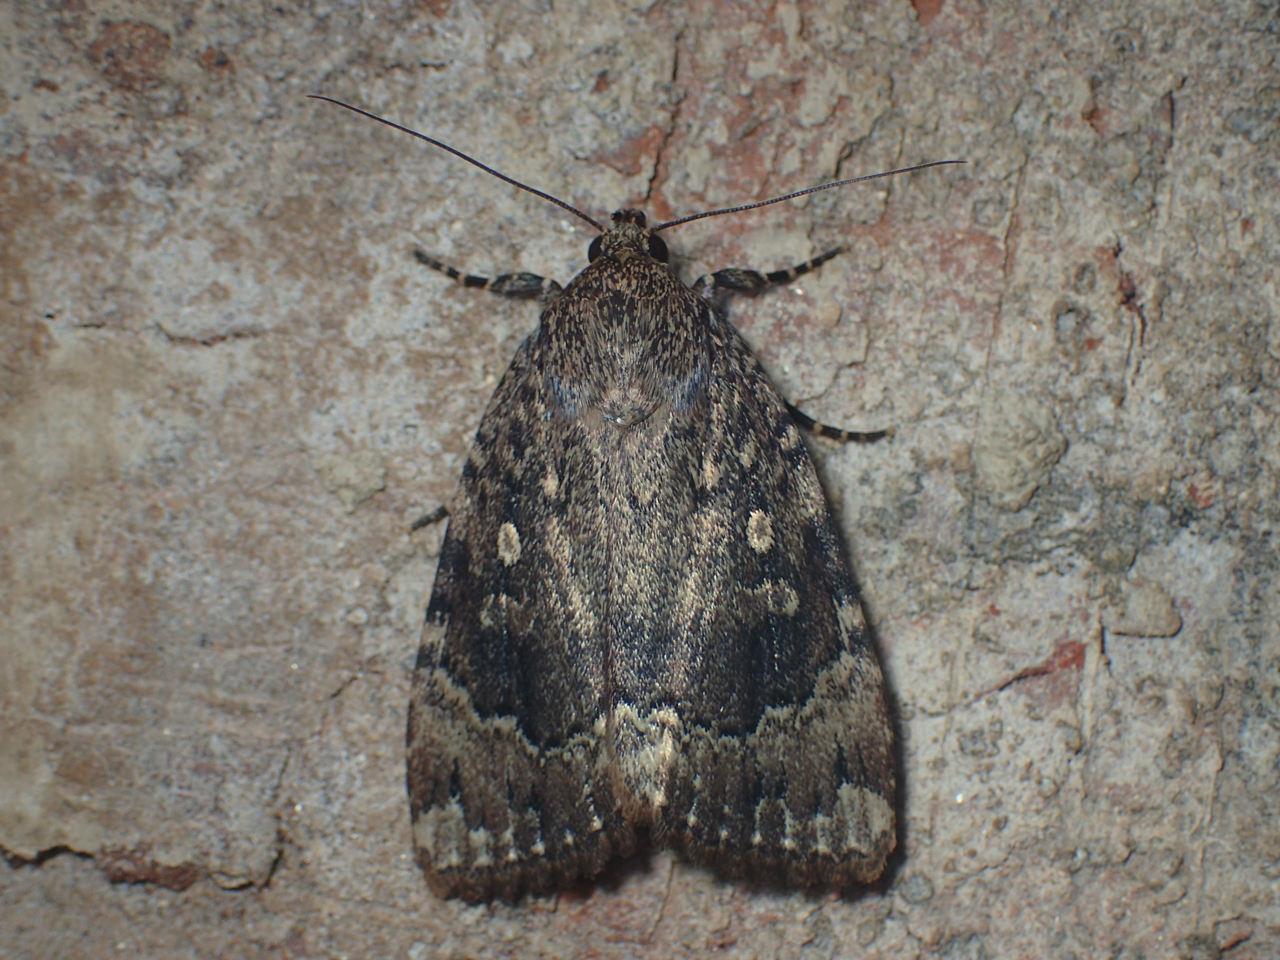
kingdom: Animalia
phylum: Arthropoda
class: Insecta
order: Lepidoptera
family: Noctuidae
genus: Amphipyra
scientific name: Amphipyra pyramidoides
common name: American copper underwing
